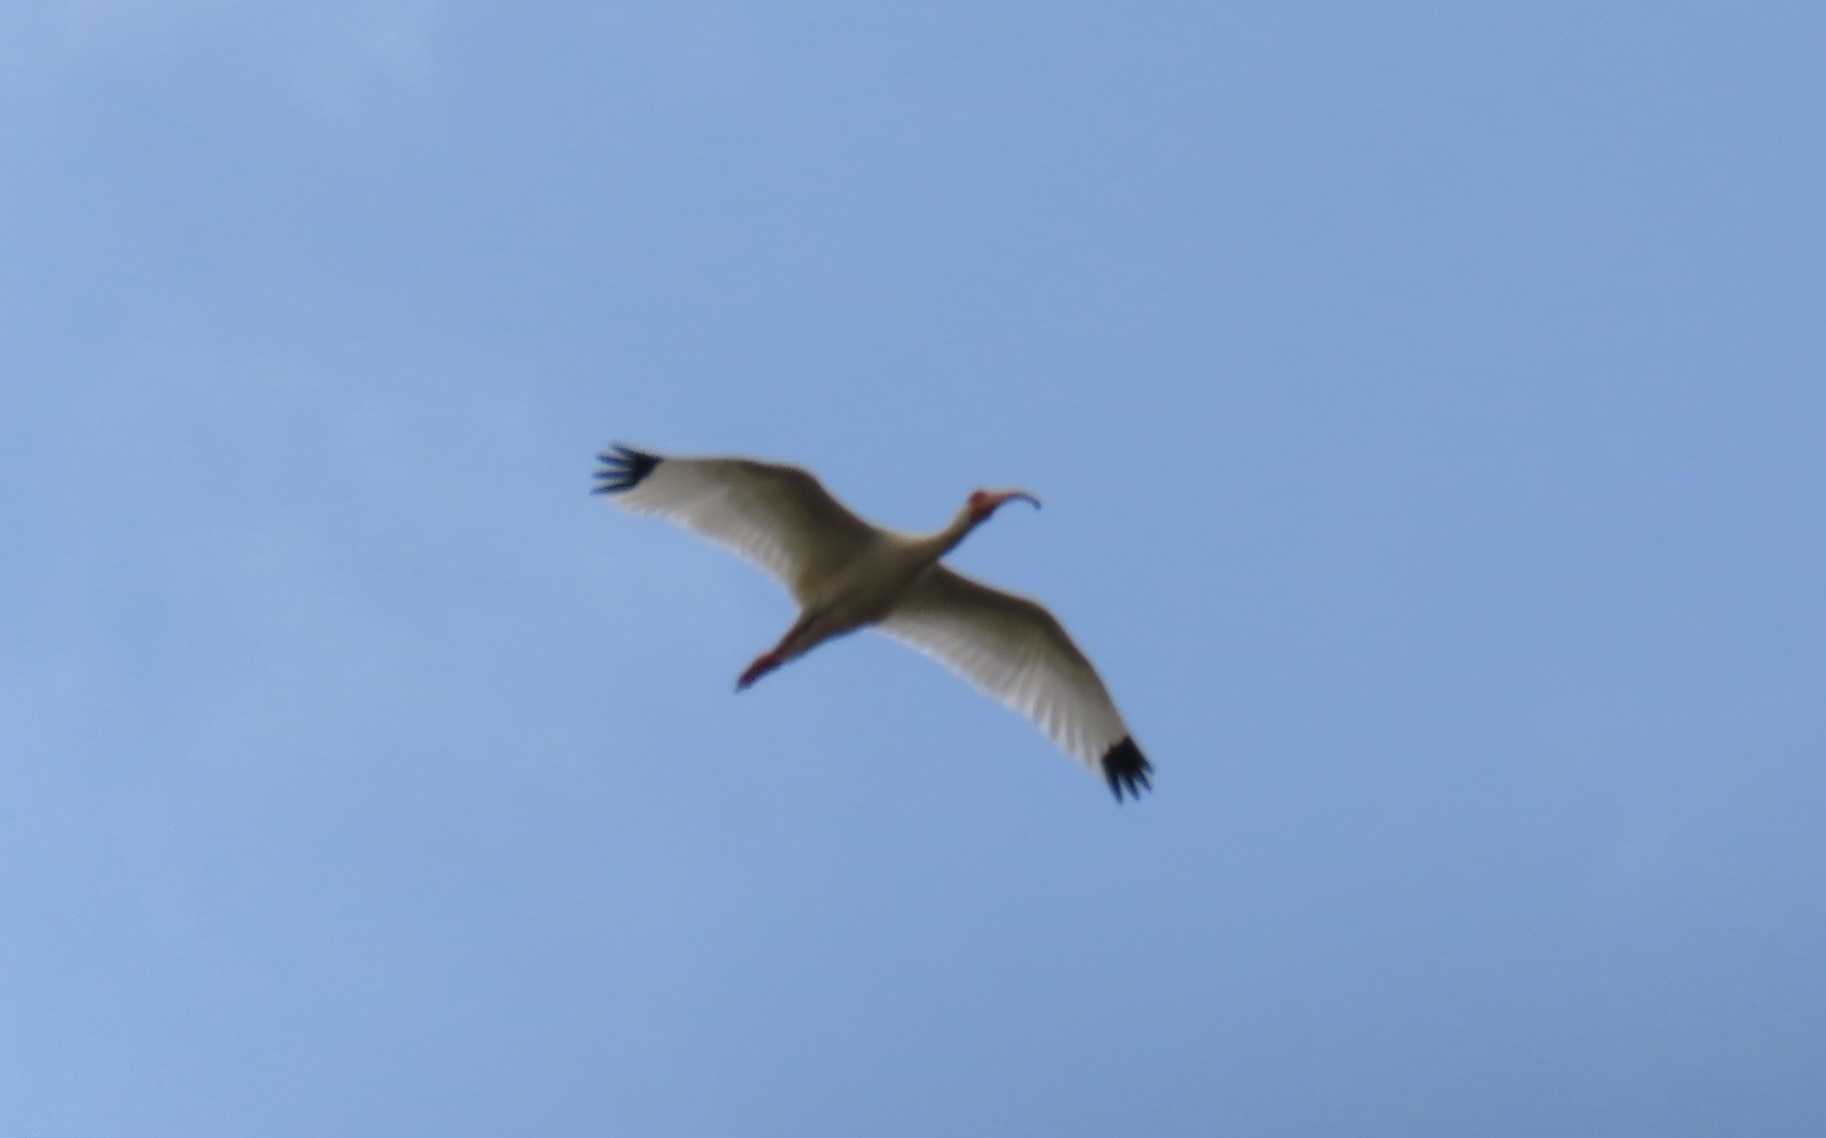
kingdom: Animalia
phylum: Chordata
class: Aves
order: Pelecaniformes
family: Threskiornithidae
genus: Eudocimus
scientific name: Eudocimus albus
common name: White ibis
